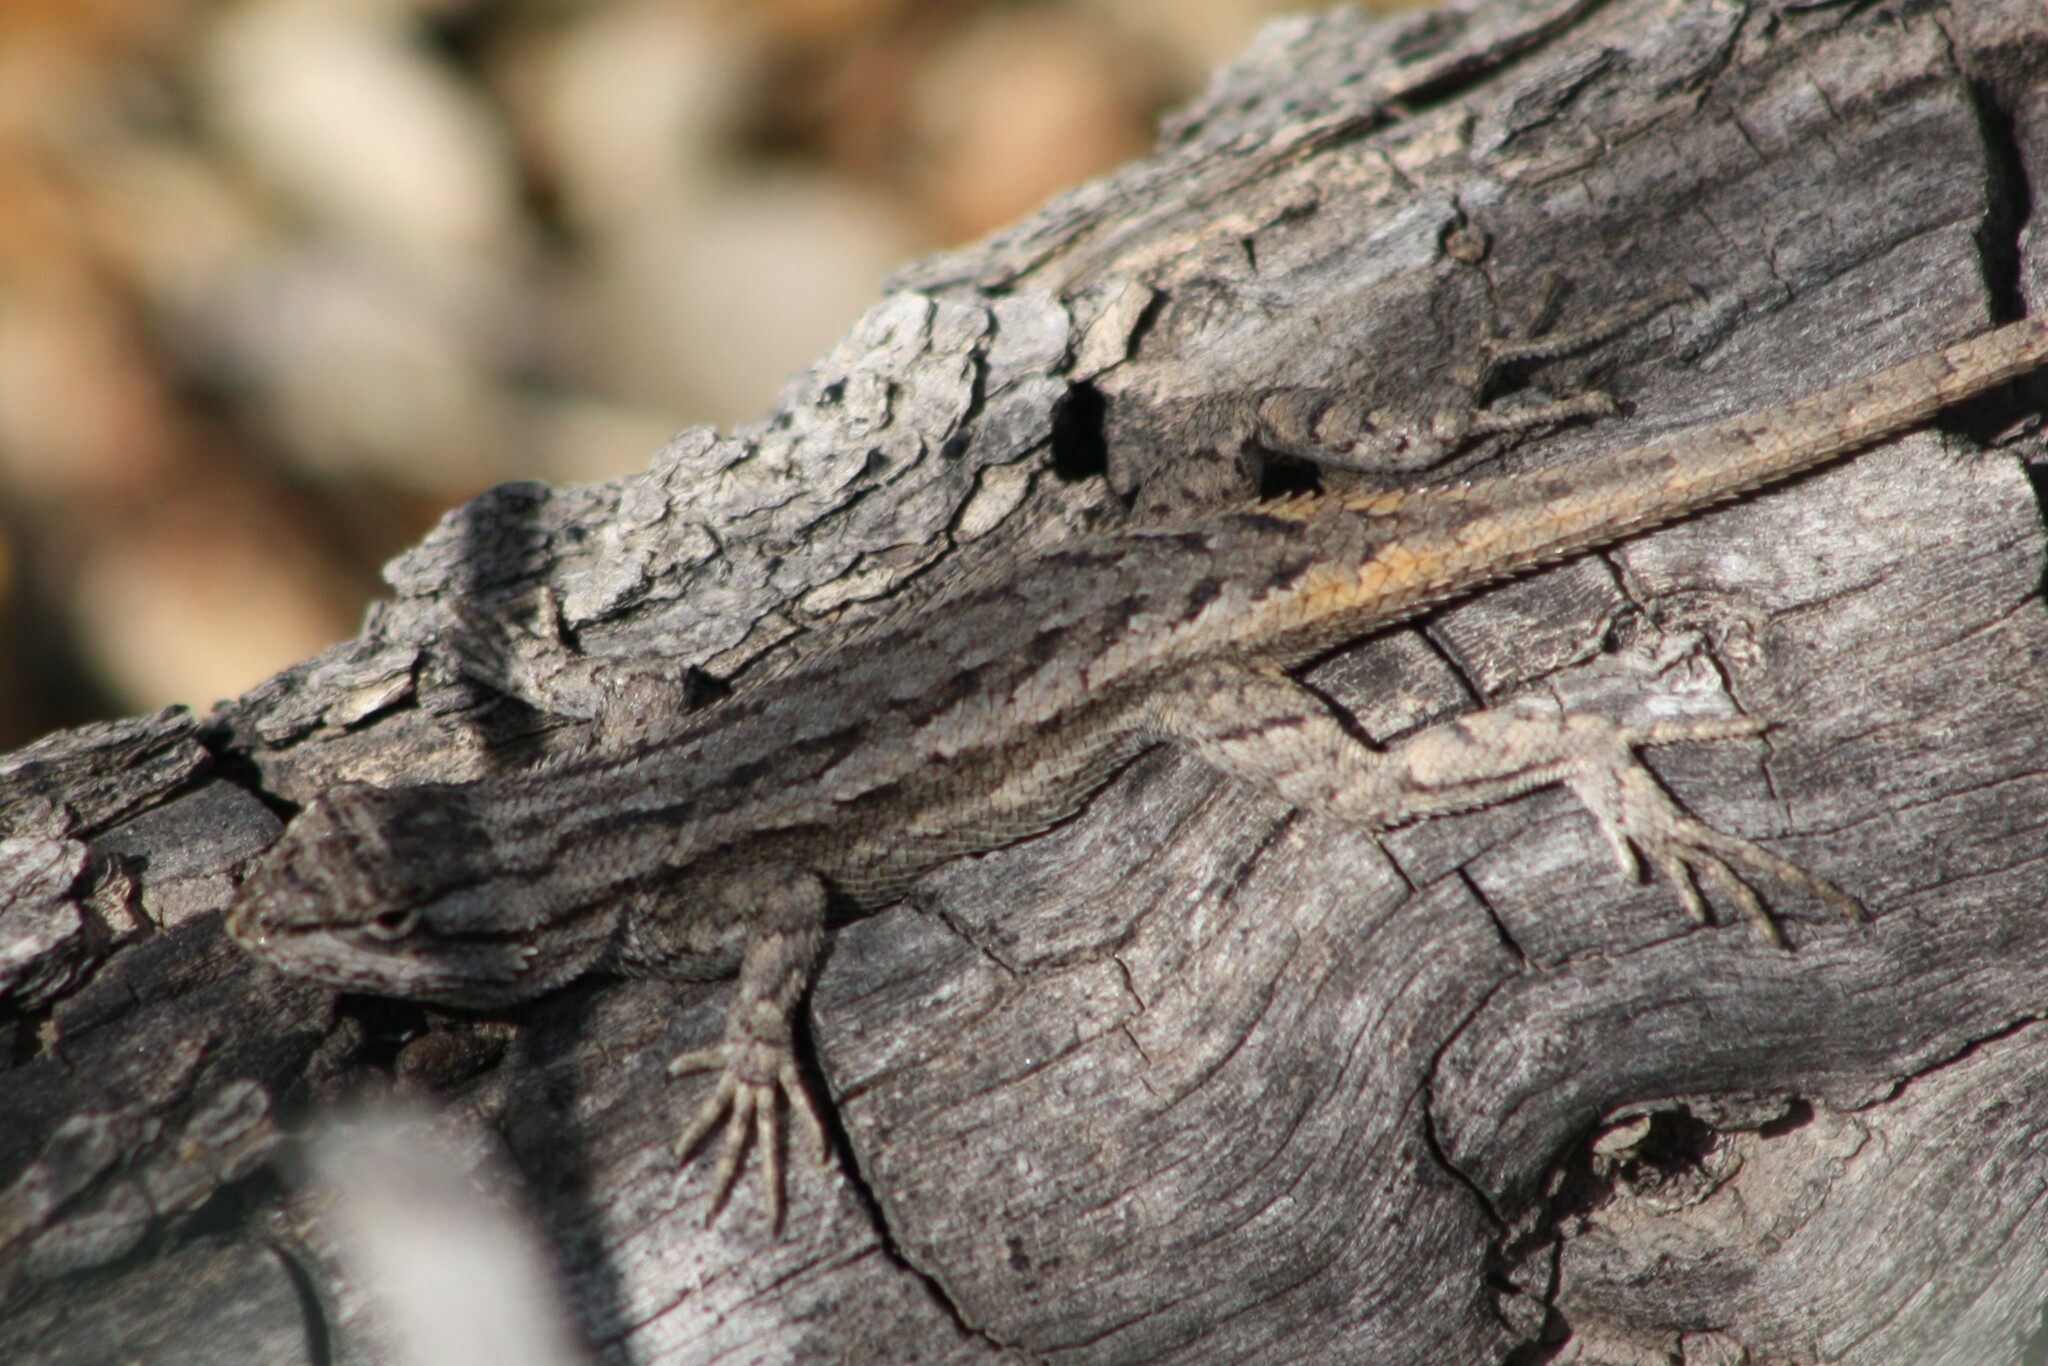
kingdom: Animalia
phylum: Chordata
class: Squamata
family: Phrynosomatidae
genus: Sceloporus
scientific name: Sceloporus cowlesi
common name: White sands prairie lizard
